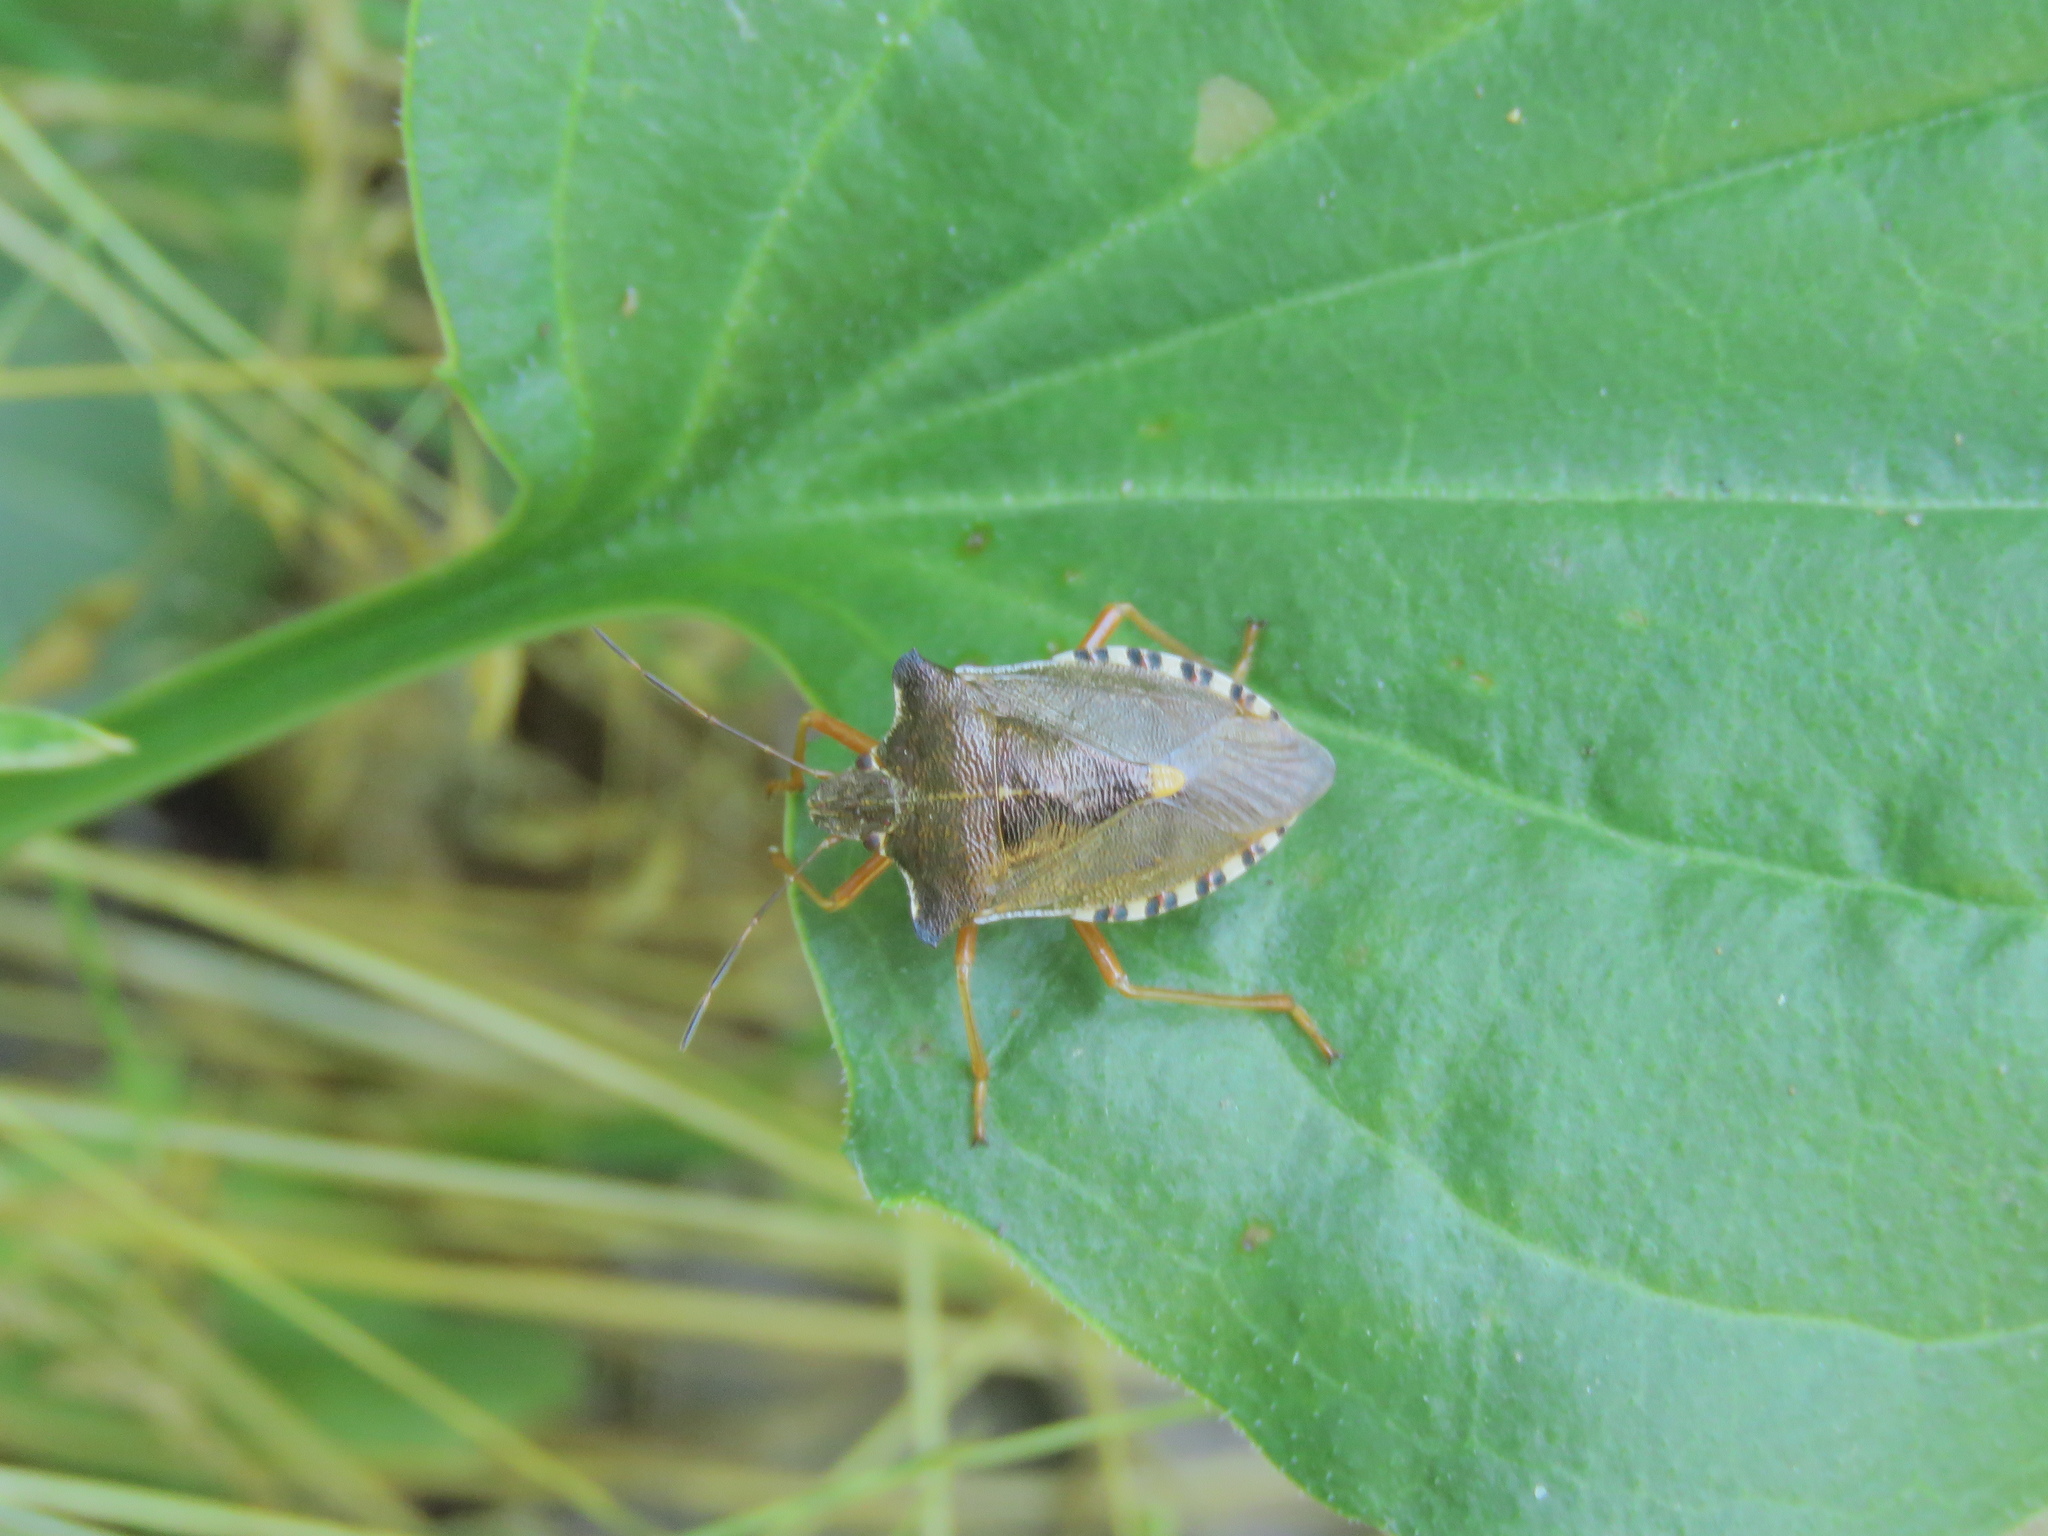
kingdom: Animalia
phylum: Arthropoda
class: Insecta
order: Hemiptera
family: Pentatomidae
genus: Pentatoma
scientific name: Pentatoma rufipes
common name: Forest bug
